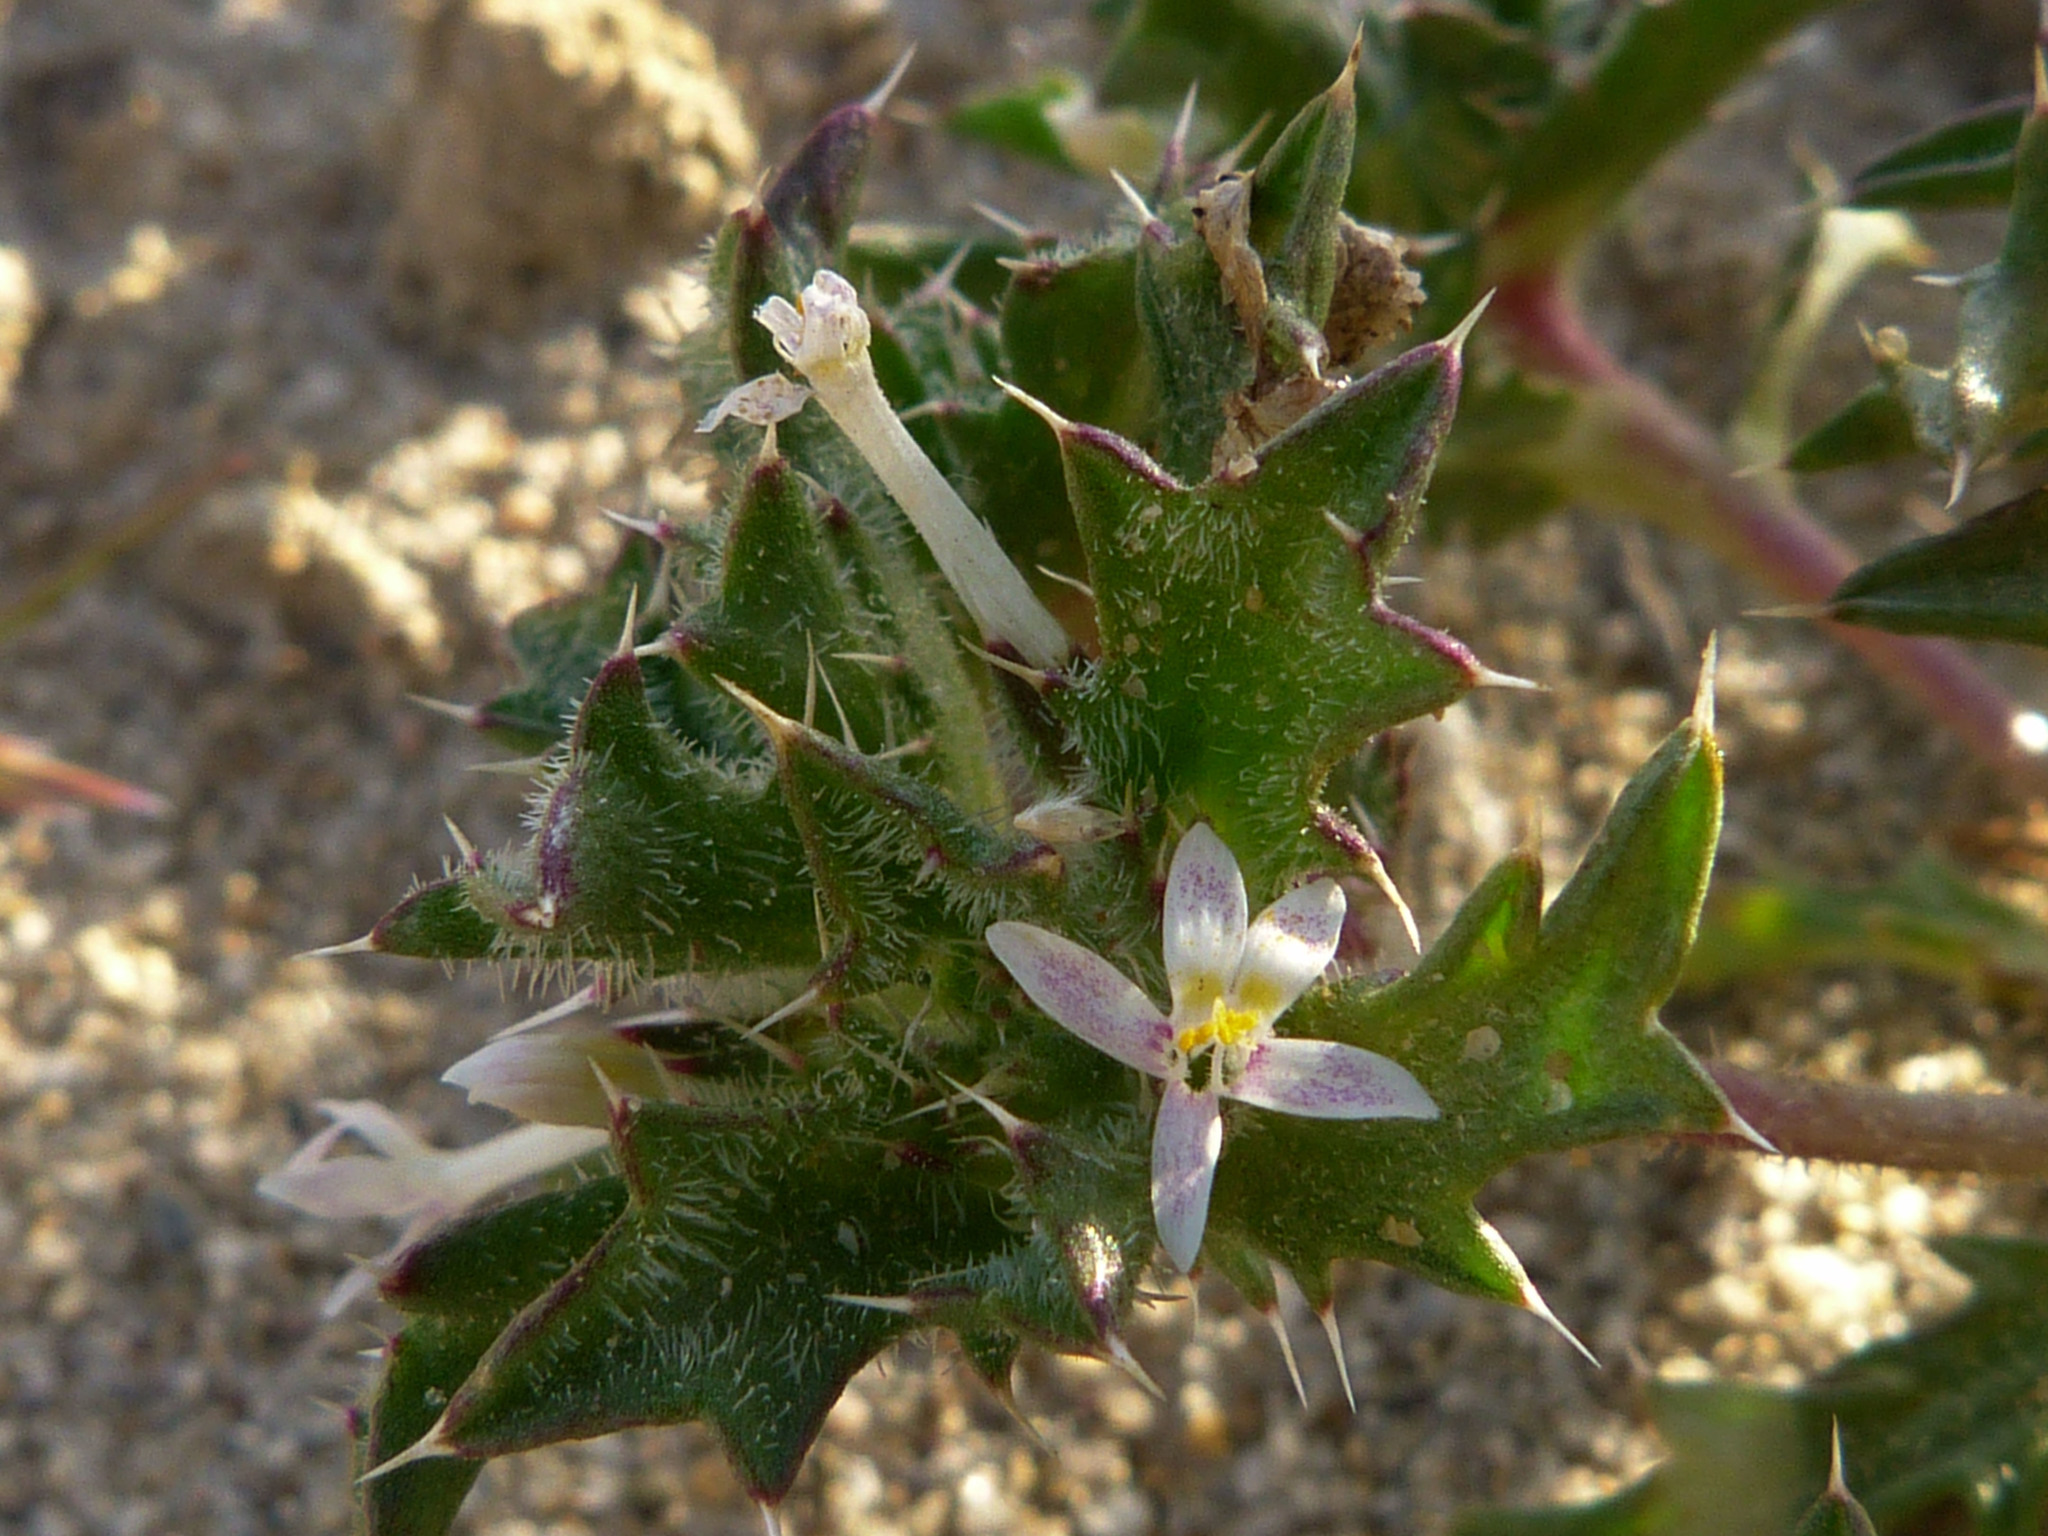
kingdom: Plantae
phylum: Tracheophyta
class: Magnoliopsida
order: Ericales
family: Polemoniaceae
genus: Loeseliastrum
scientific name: Loeseliastrum schottii
